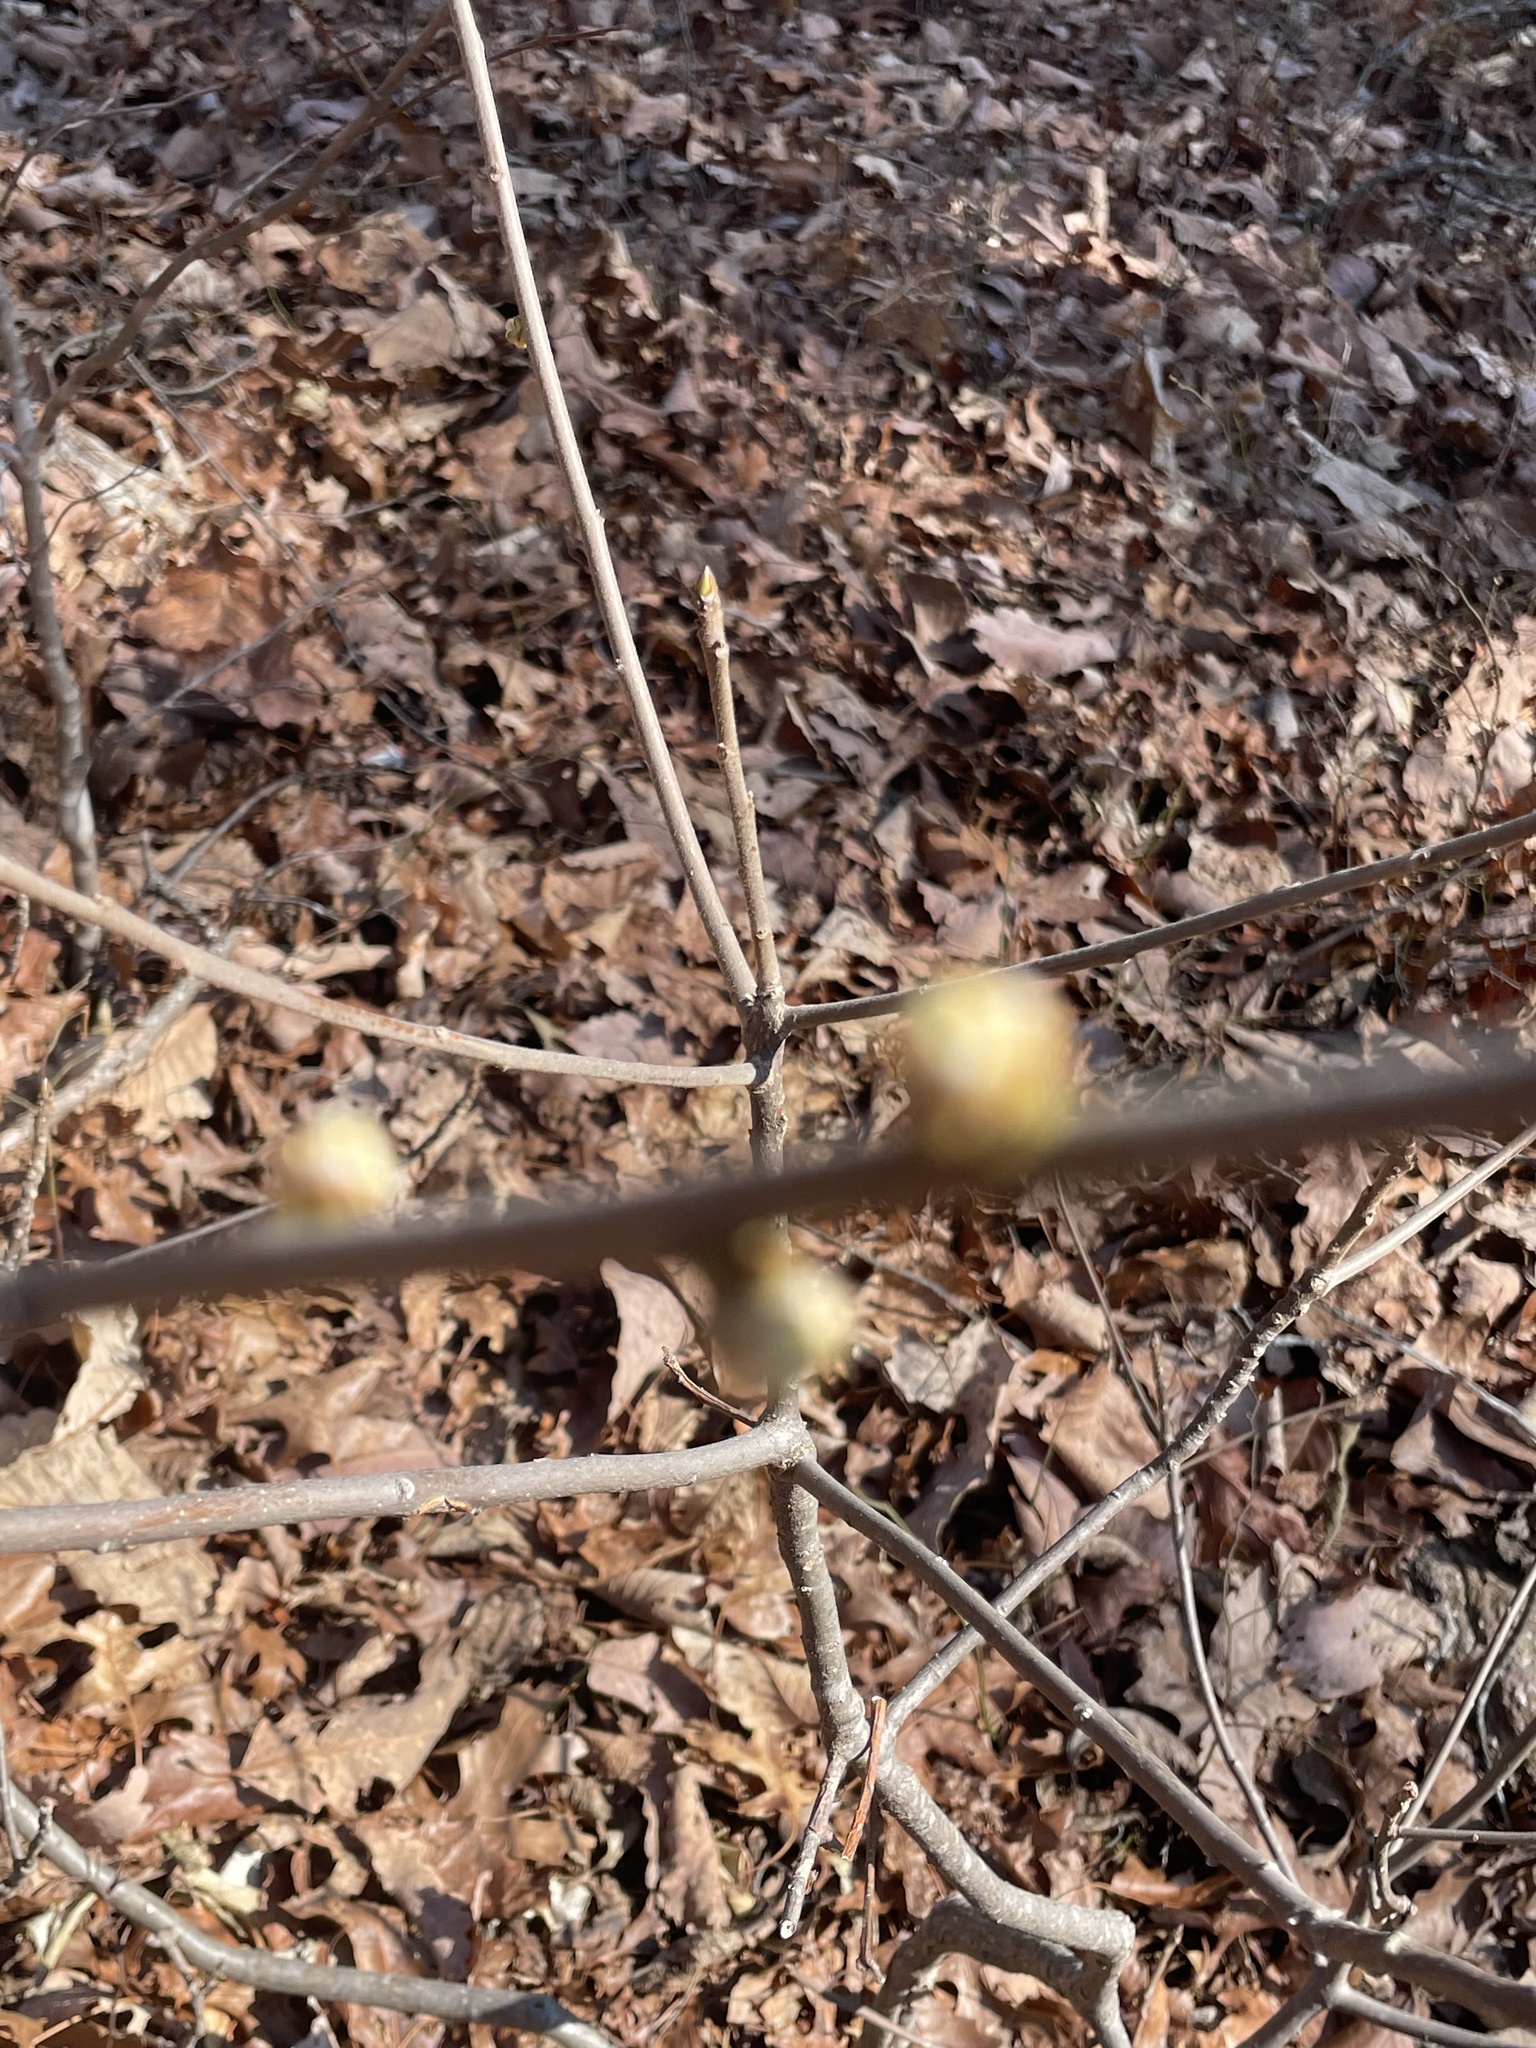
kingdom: Plantae
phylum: Tracheophyta
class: Magnoliopsida
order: Laurales
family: Lauraceae
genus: Lindera
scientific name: Lindera benzoin
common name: Spicebush
